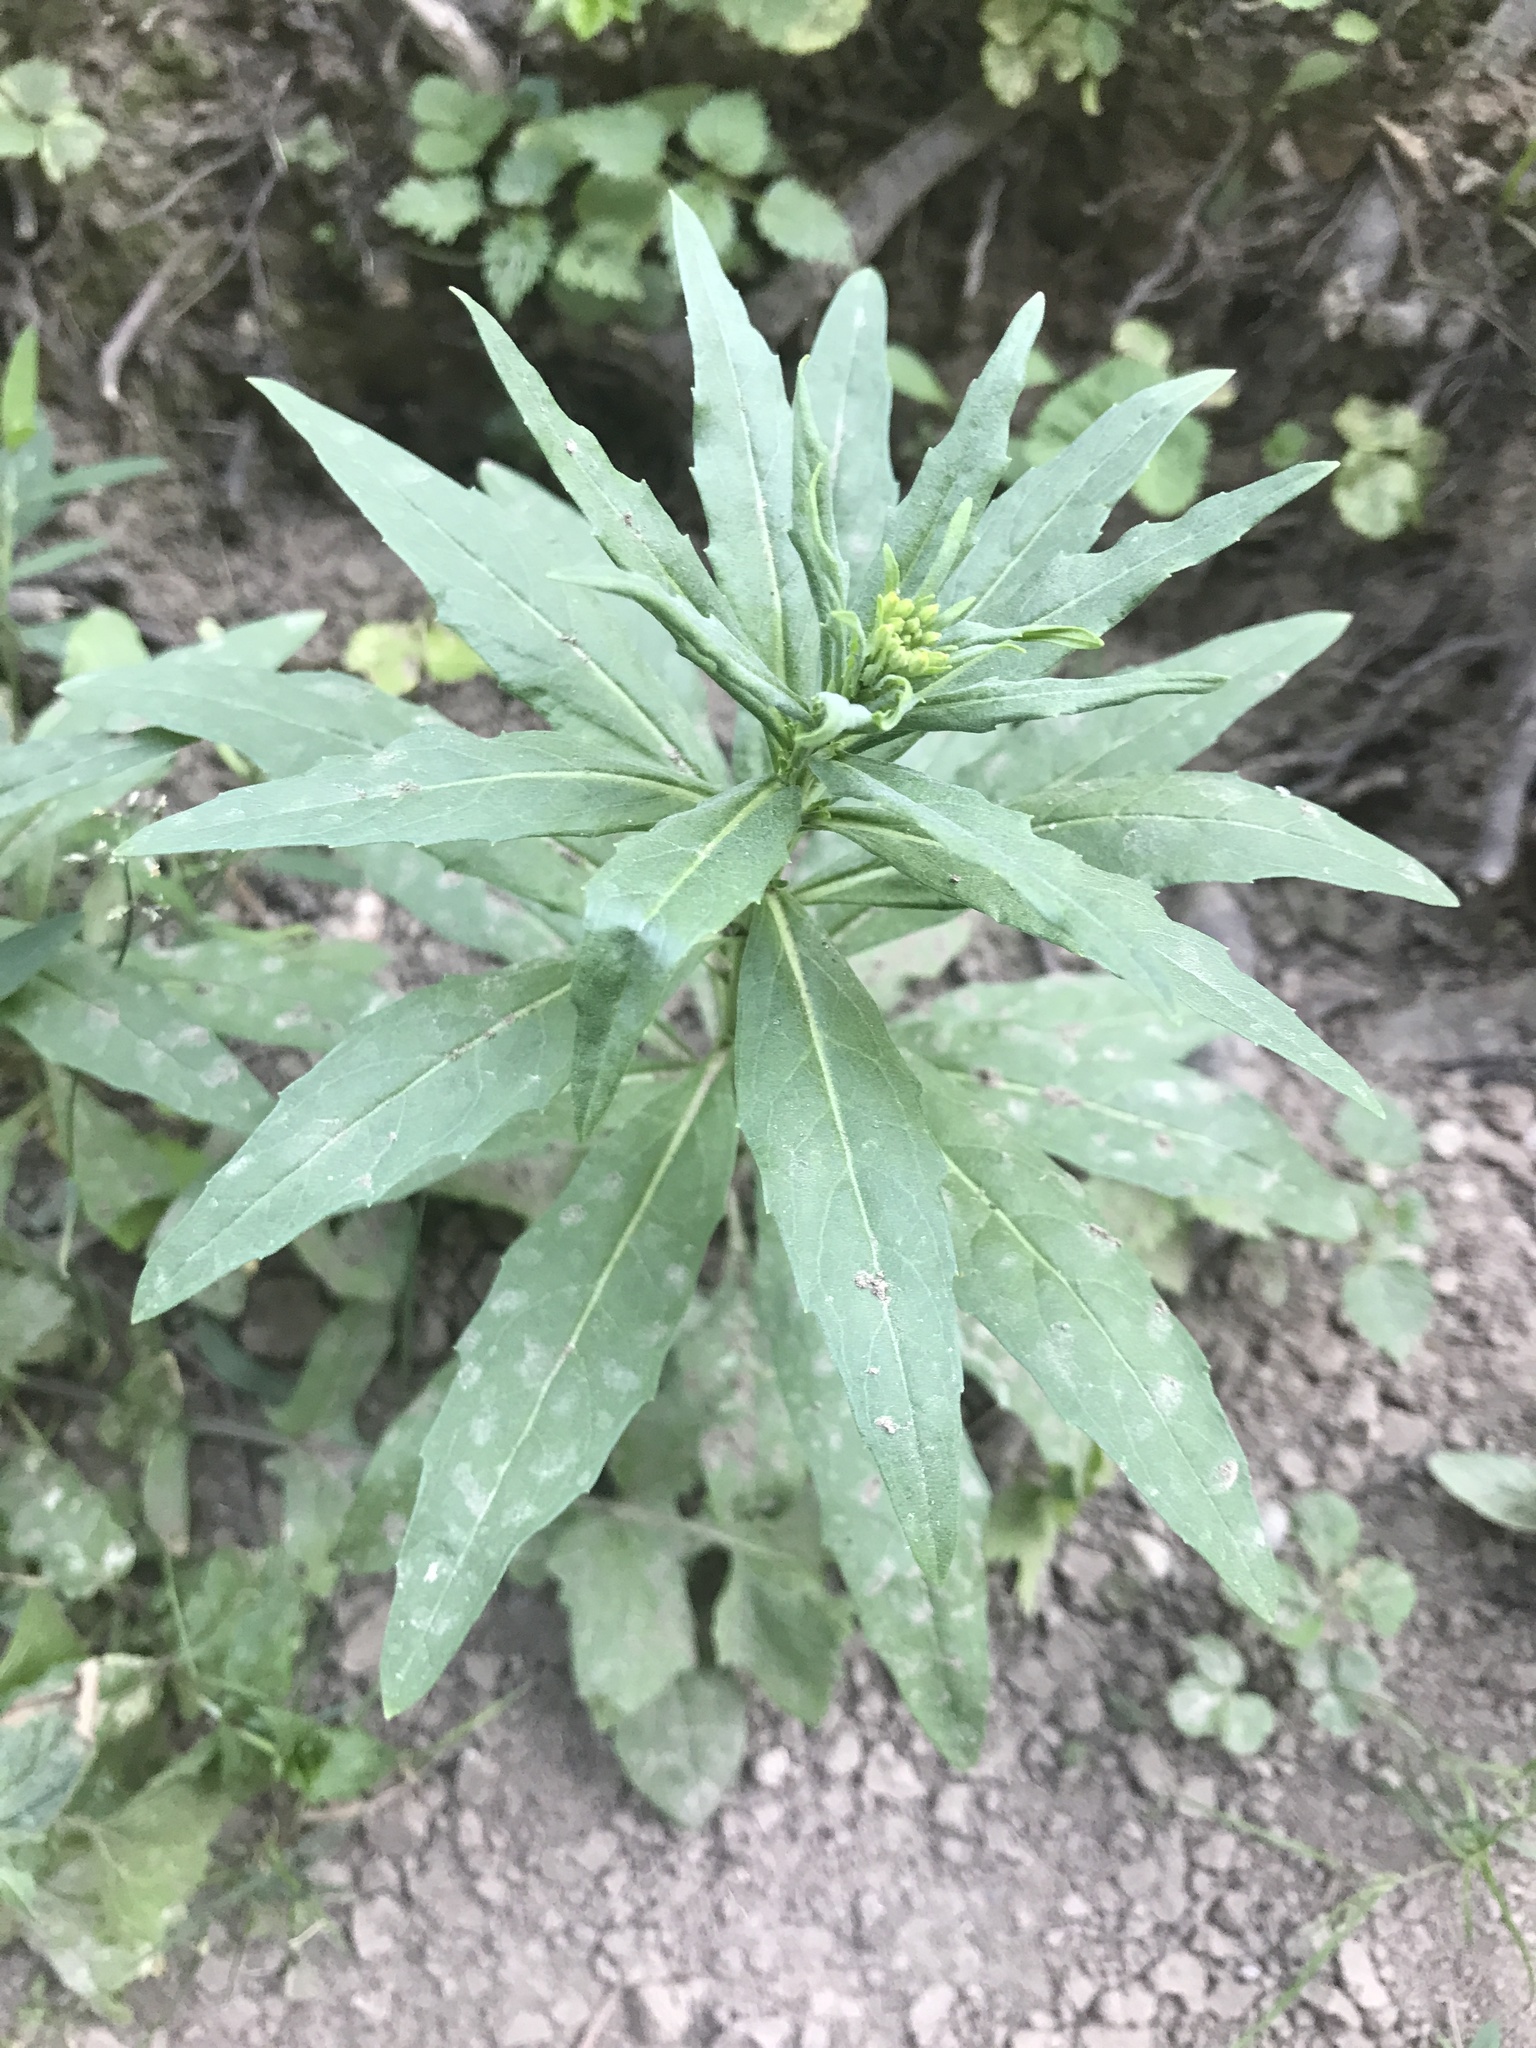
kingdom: Plantae
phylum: Tracheophyta
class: Magnoliopsida
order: Brassicales
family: Brassicaceae
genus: Erysimum
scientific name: Erysimum cheiranthoides
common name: Treacle mustard
